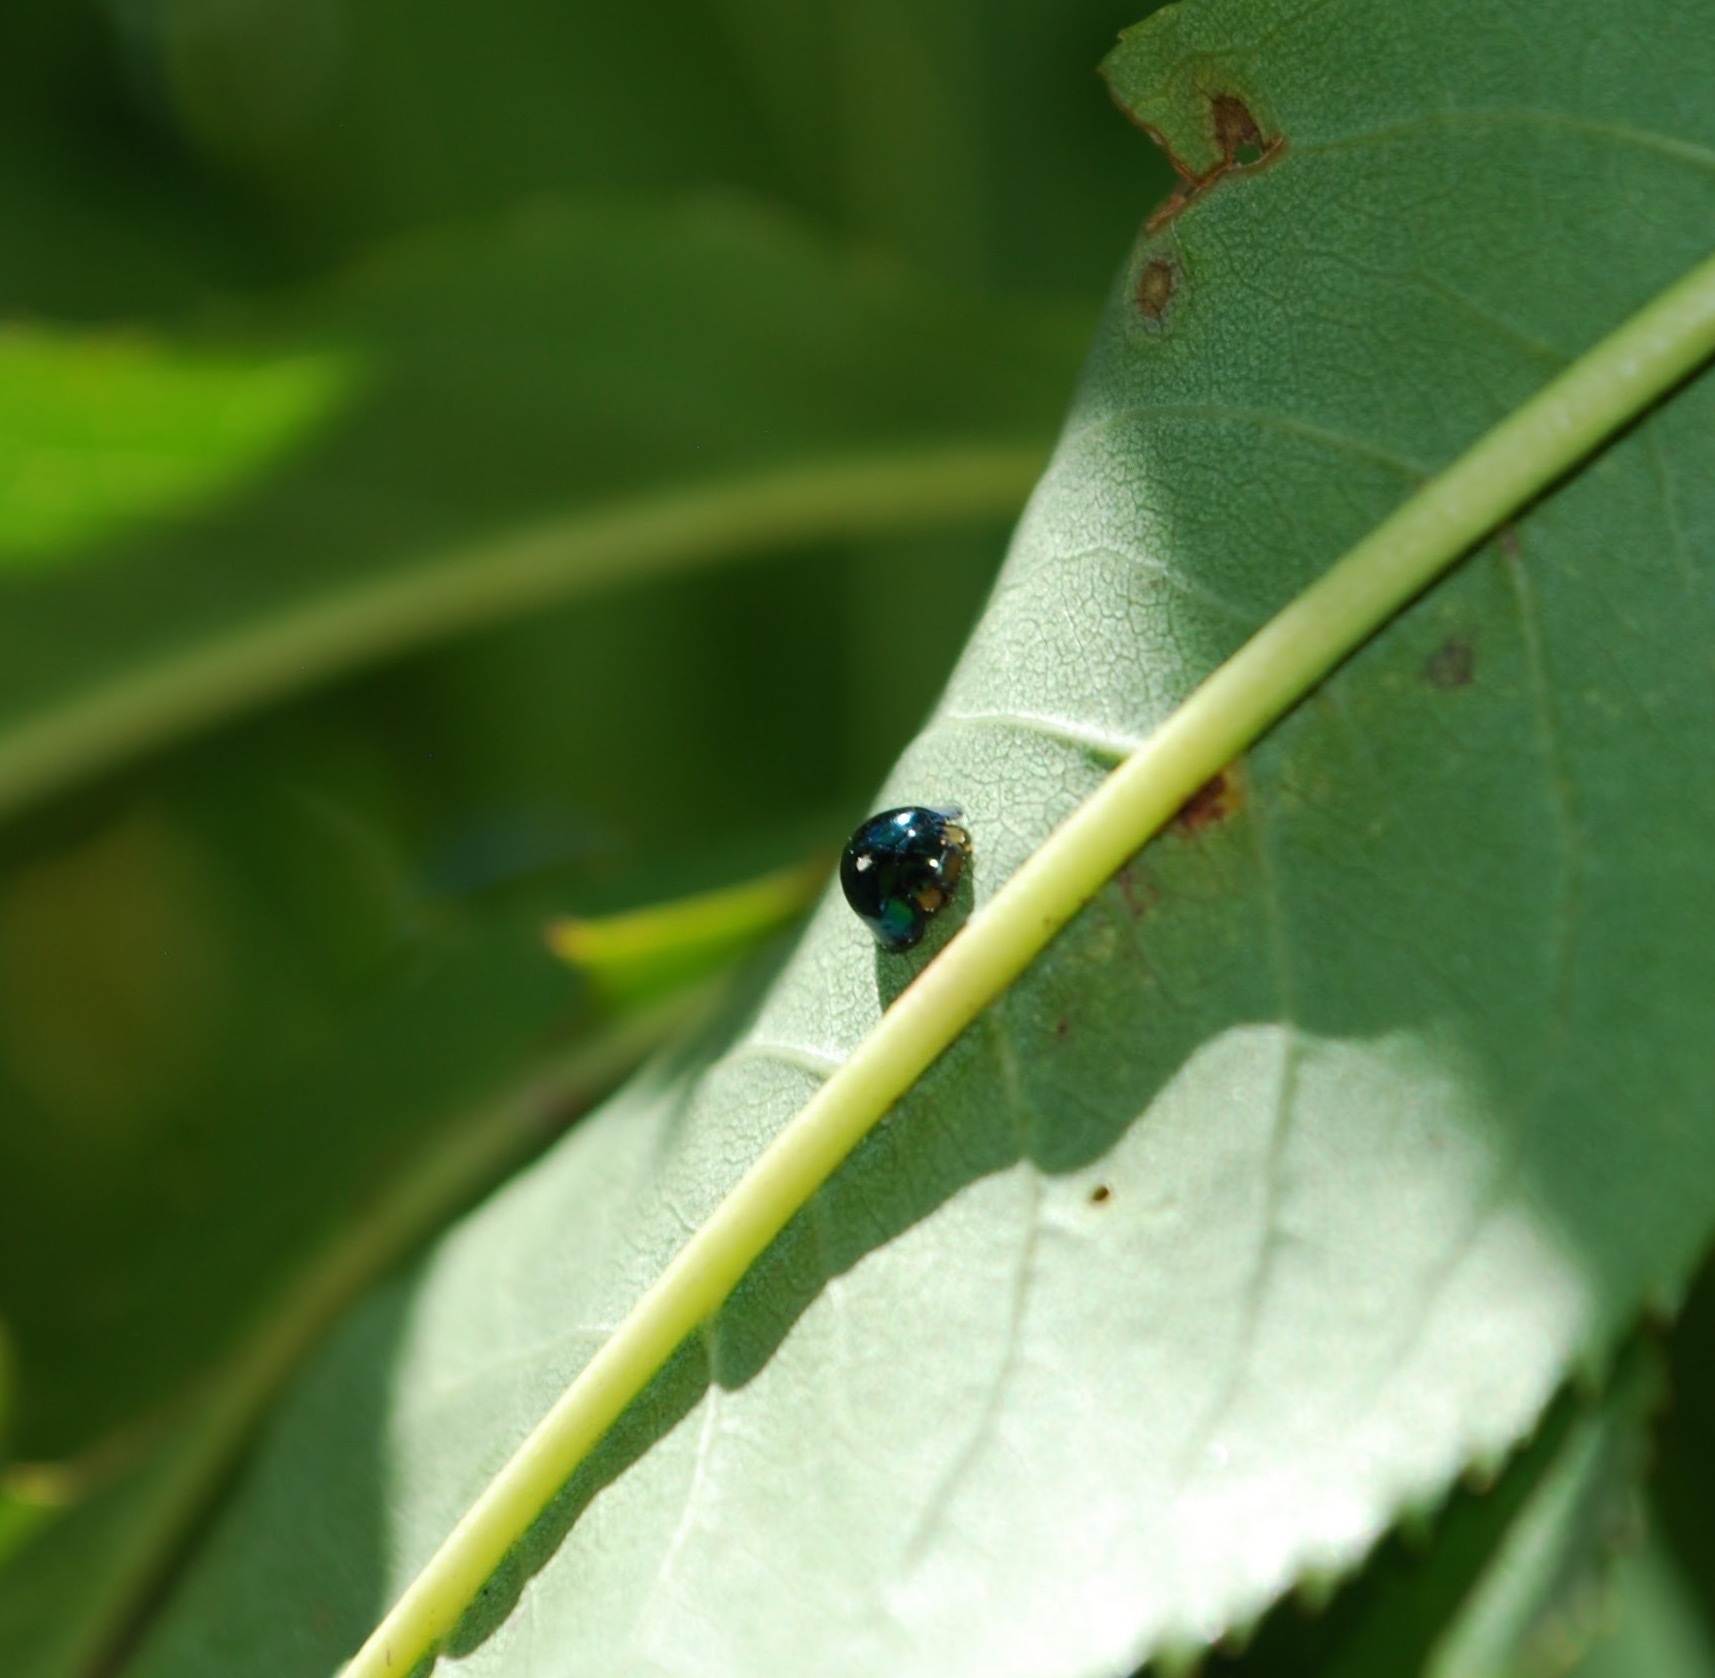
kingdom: Animalia
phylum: Arthropoda
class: Insecta
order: Coleoptera
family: Coccinellidae
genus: Halmus
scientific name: Halmus chalybeus
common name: Steel blue ladybird beetle
